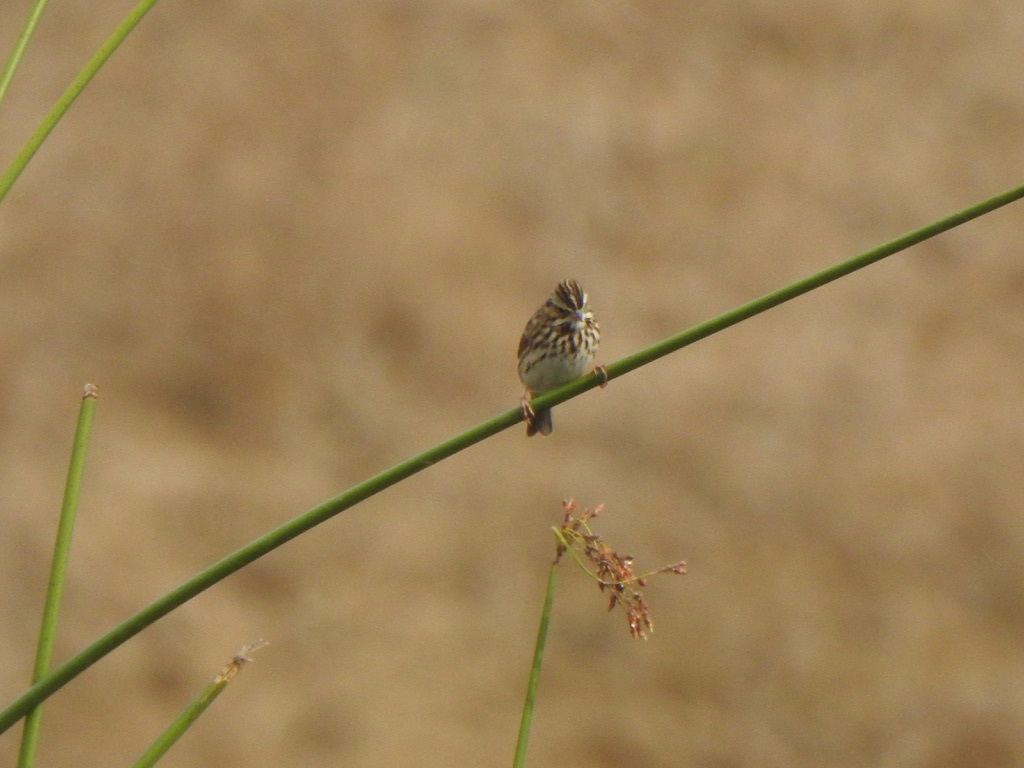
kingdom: Animalia
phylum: Chordata
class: Aves
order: Passeriformes
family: Passerellidae
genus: Passerculus
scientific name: Passerculus sandwichensis
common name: Savannah sparrow
